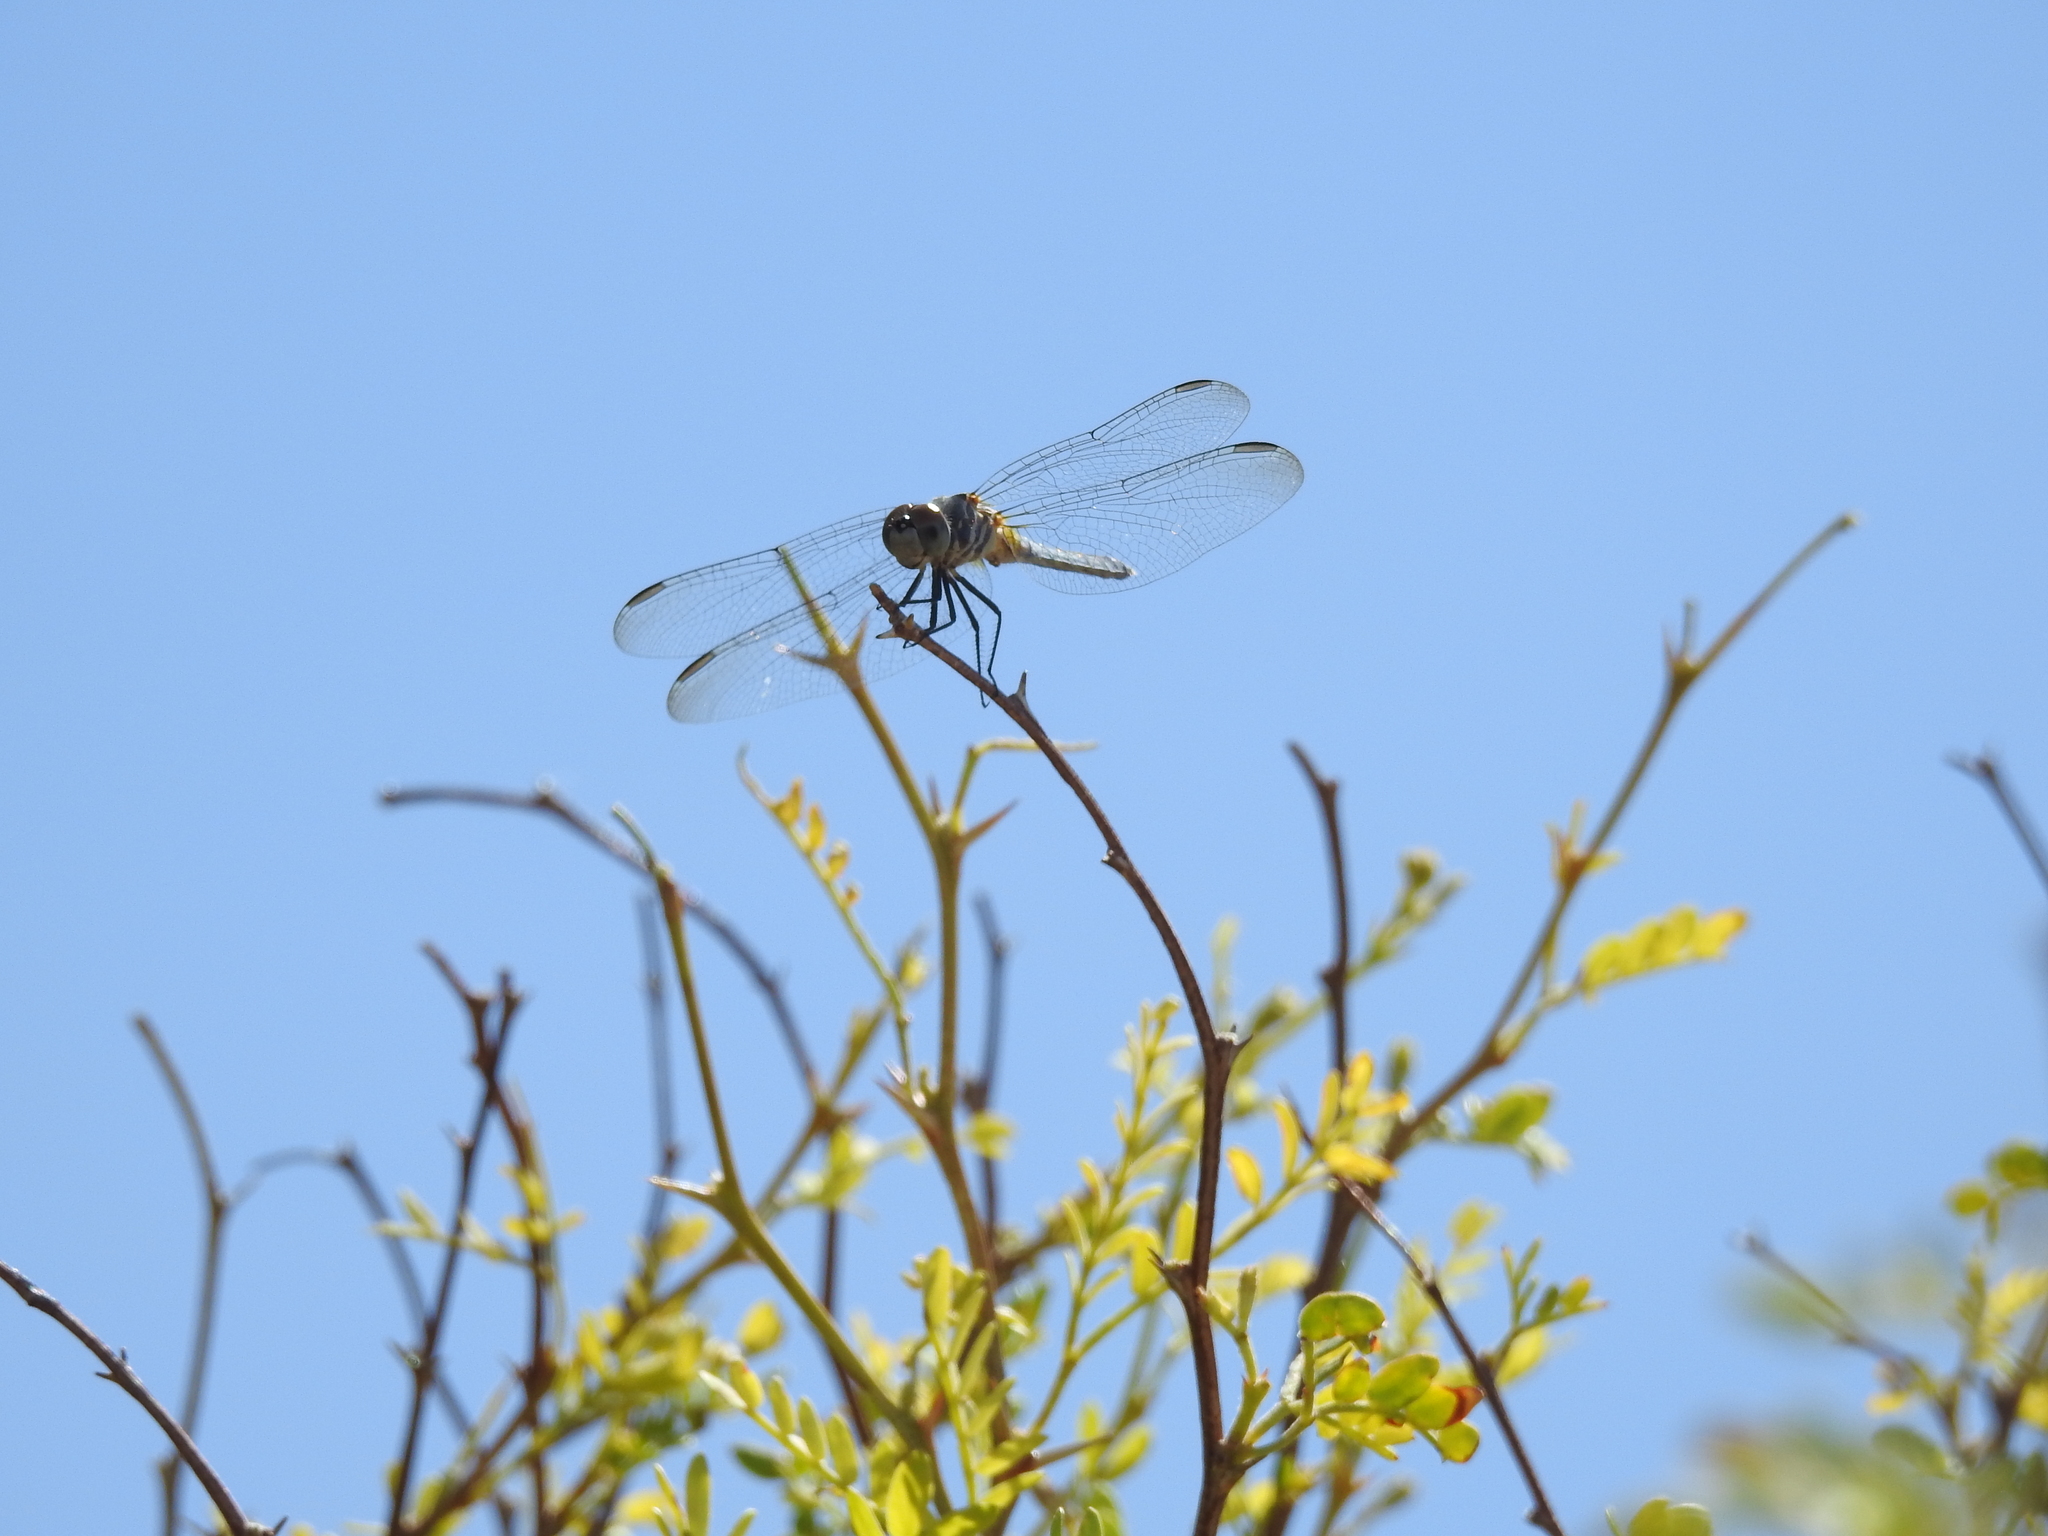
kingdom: Animalia
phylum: Arthropoda
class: Insecta
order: Odonata
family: Libellulidae
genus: Pachydiplax
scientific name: Pachydiplax longipennis
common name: Blue dasher
